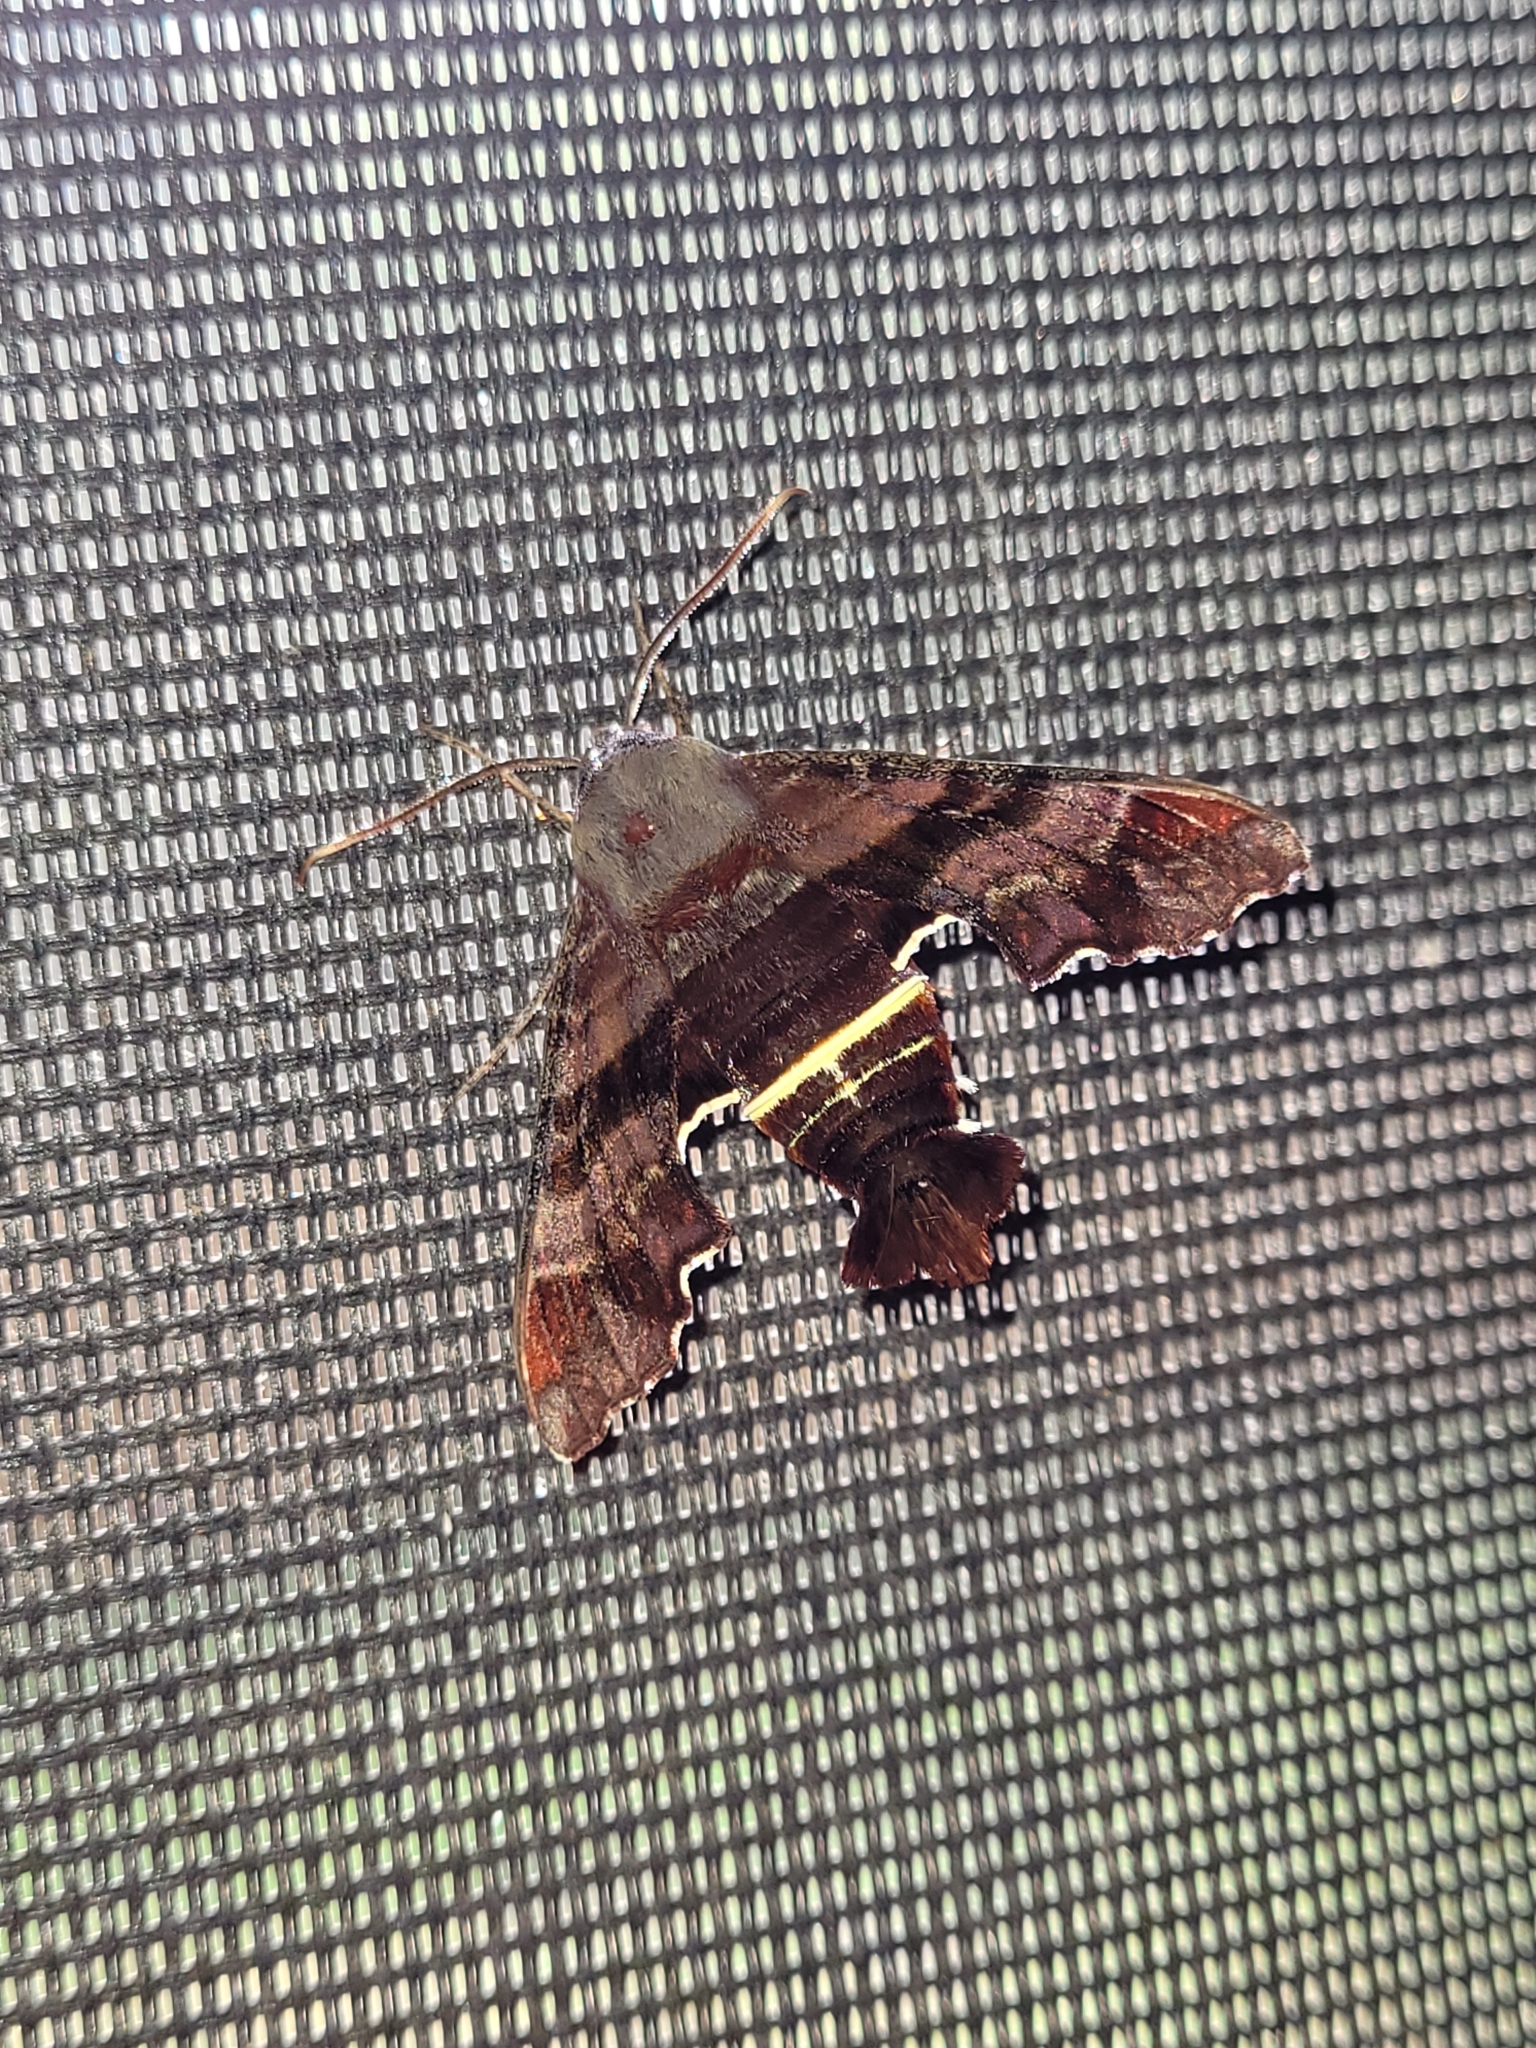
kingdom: Animalia
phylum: Arthropoda
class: Insecta
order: Lepidoptera
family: Sphingidae
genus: Amphion
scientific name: Amphion floridensis
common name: Nessus sphinx
